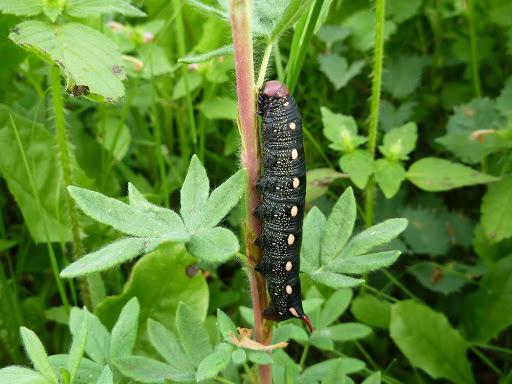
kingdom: Animalia
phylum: Arthropoda
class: Insecta
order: Lepidoptera
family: Sphingidae
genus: Hyles
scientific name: Hyles gallii
